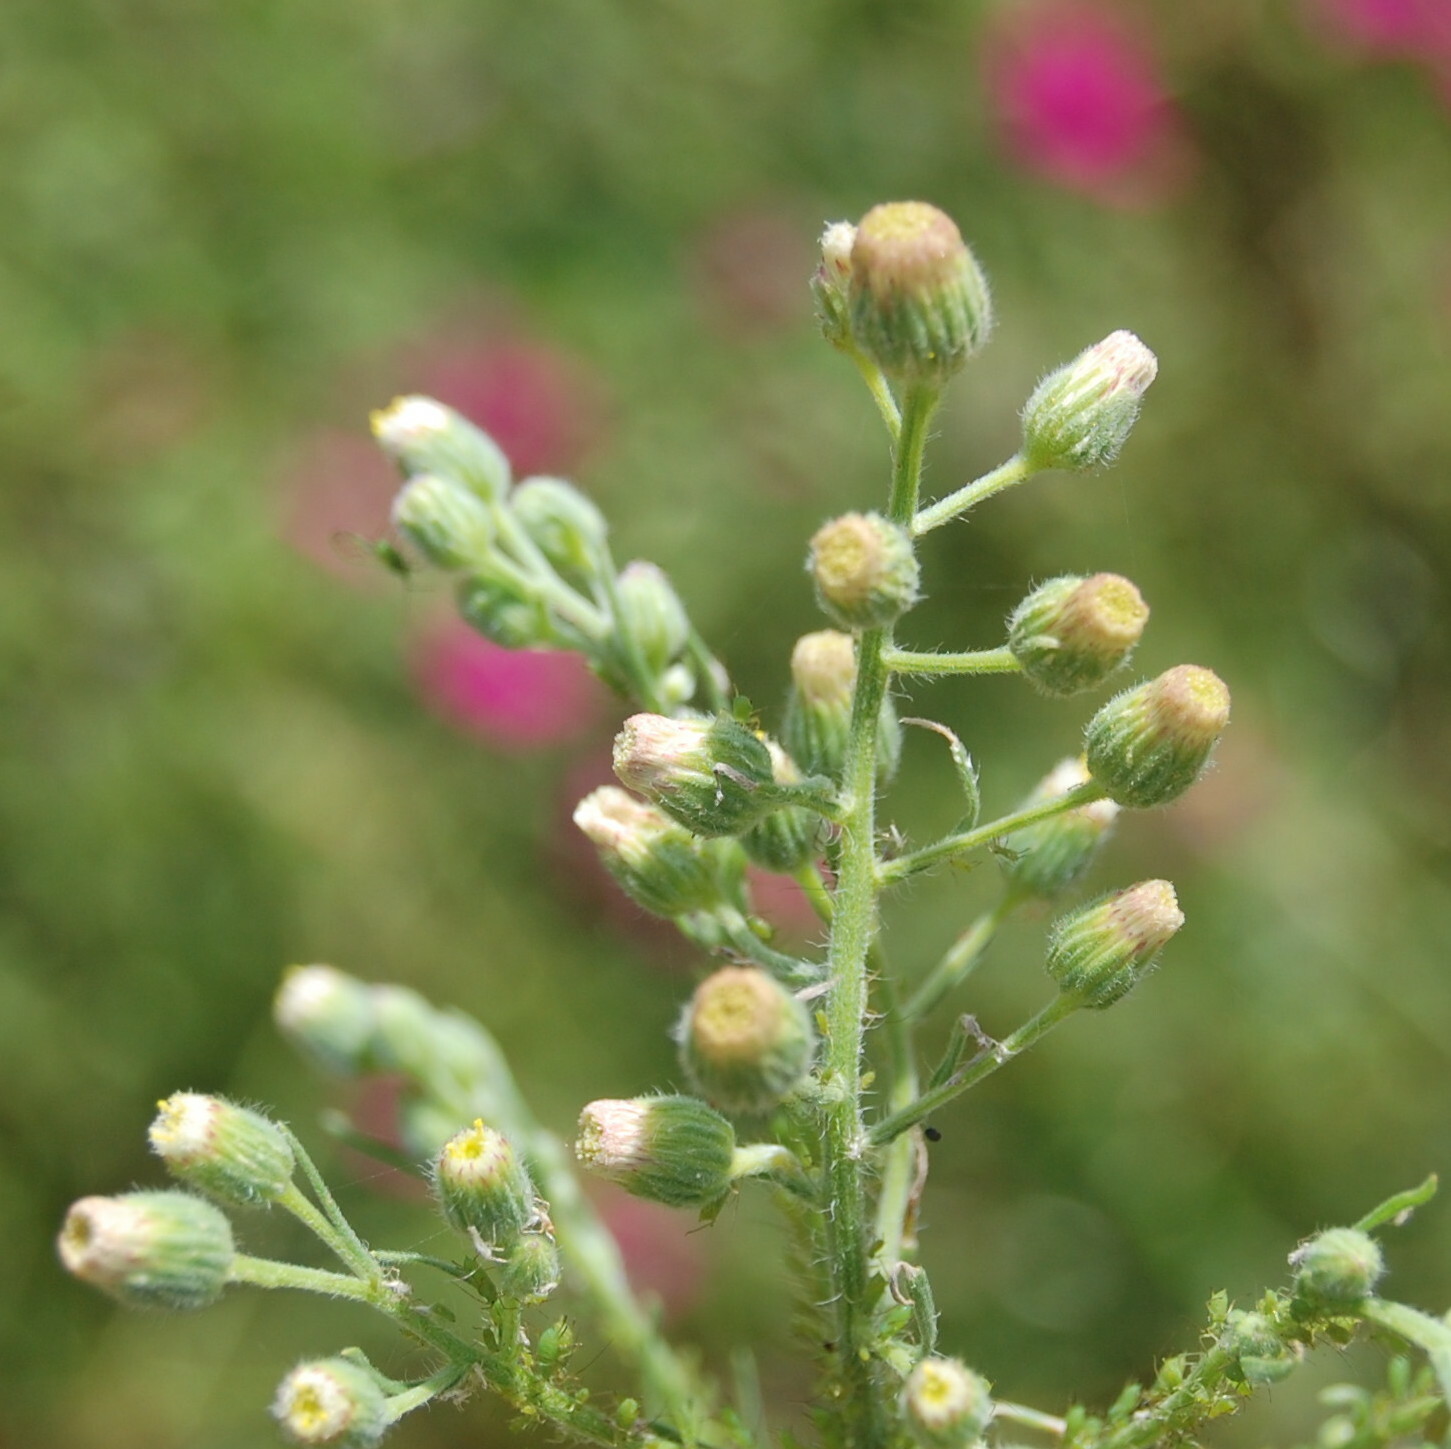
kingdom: Plantae
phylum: Tracheophyta
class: Magnoliopsida
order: Asterales
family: Asteraceae
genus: Erigeron
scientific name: Erigeron bonariensis
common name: Argentine fleabane
